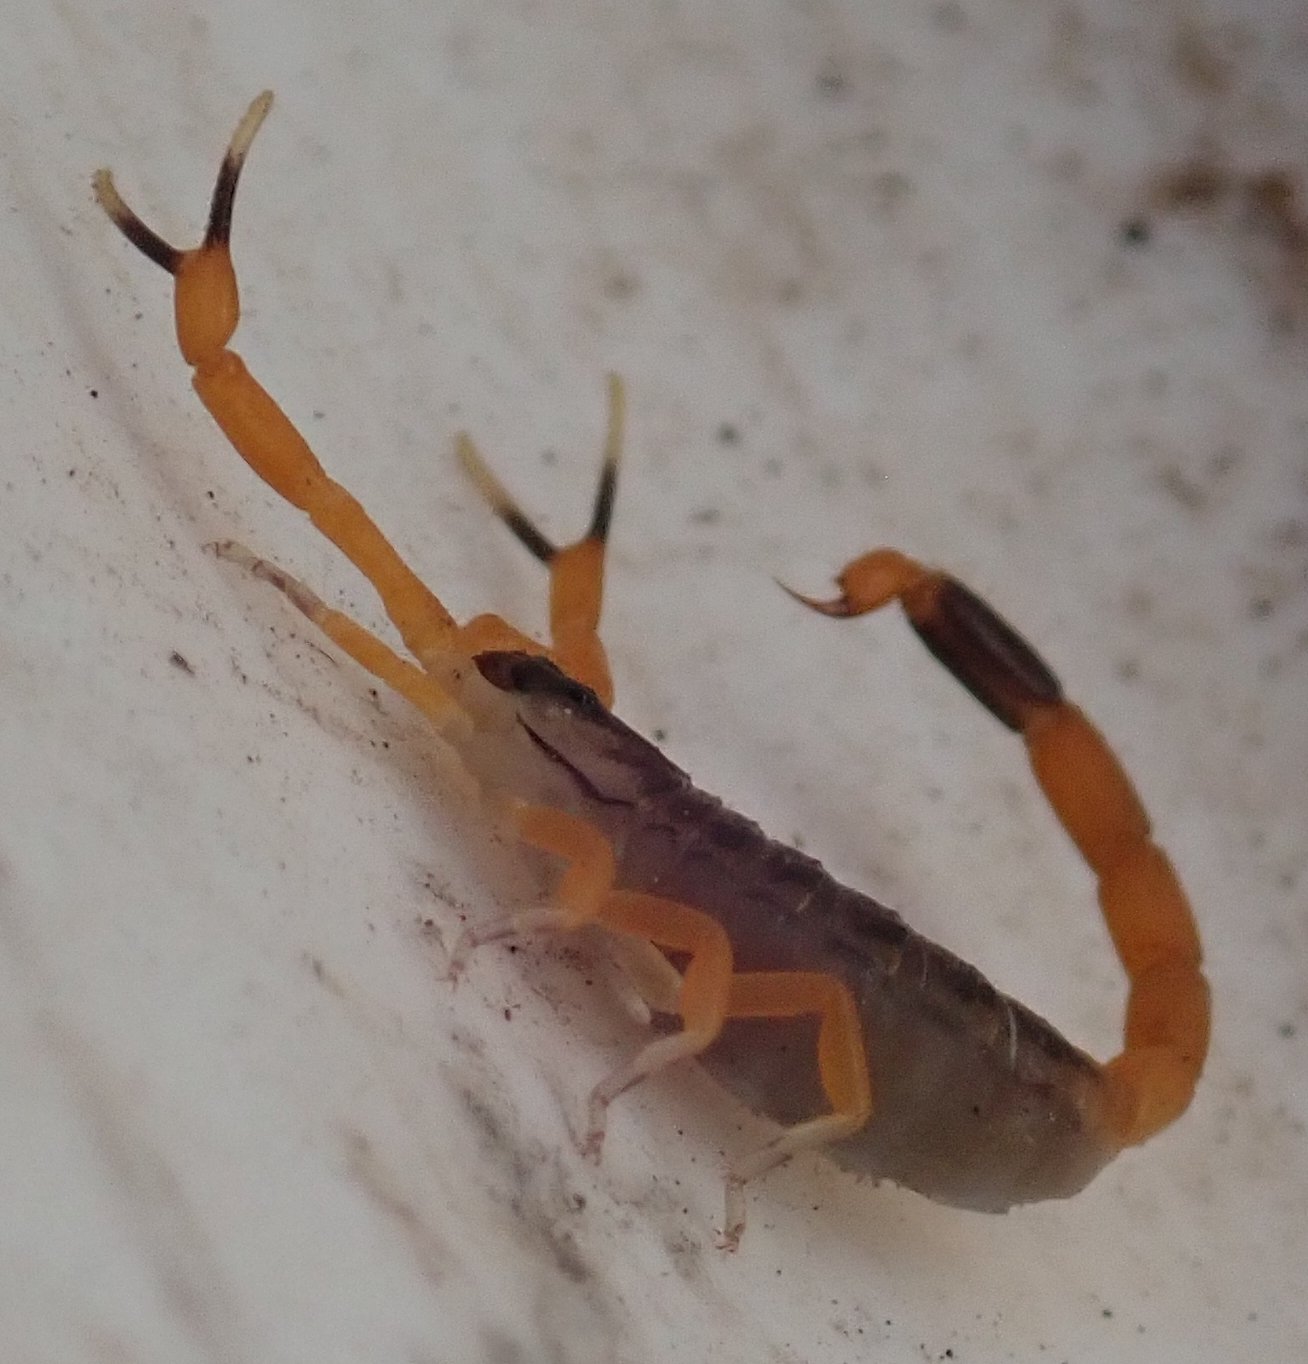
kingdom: Animalia
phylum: Arthropoda
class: Arachnida
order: Scorpiones
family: Buthidae
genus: Uroplectes
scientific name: Uroplectes vittatus
